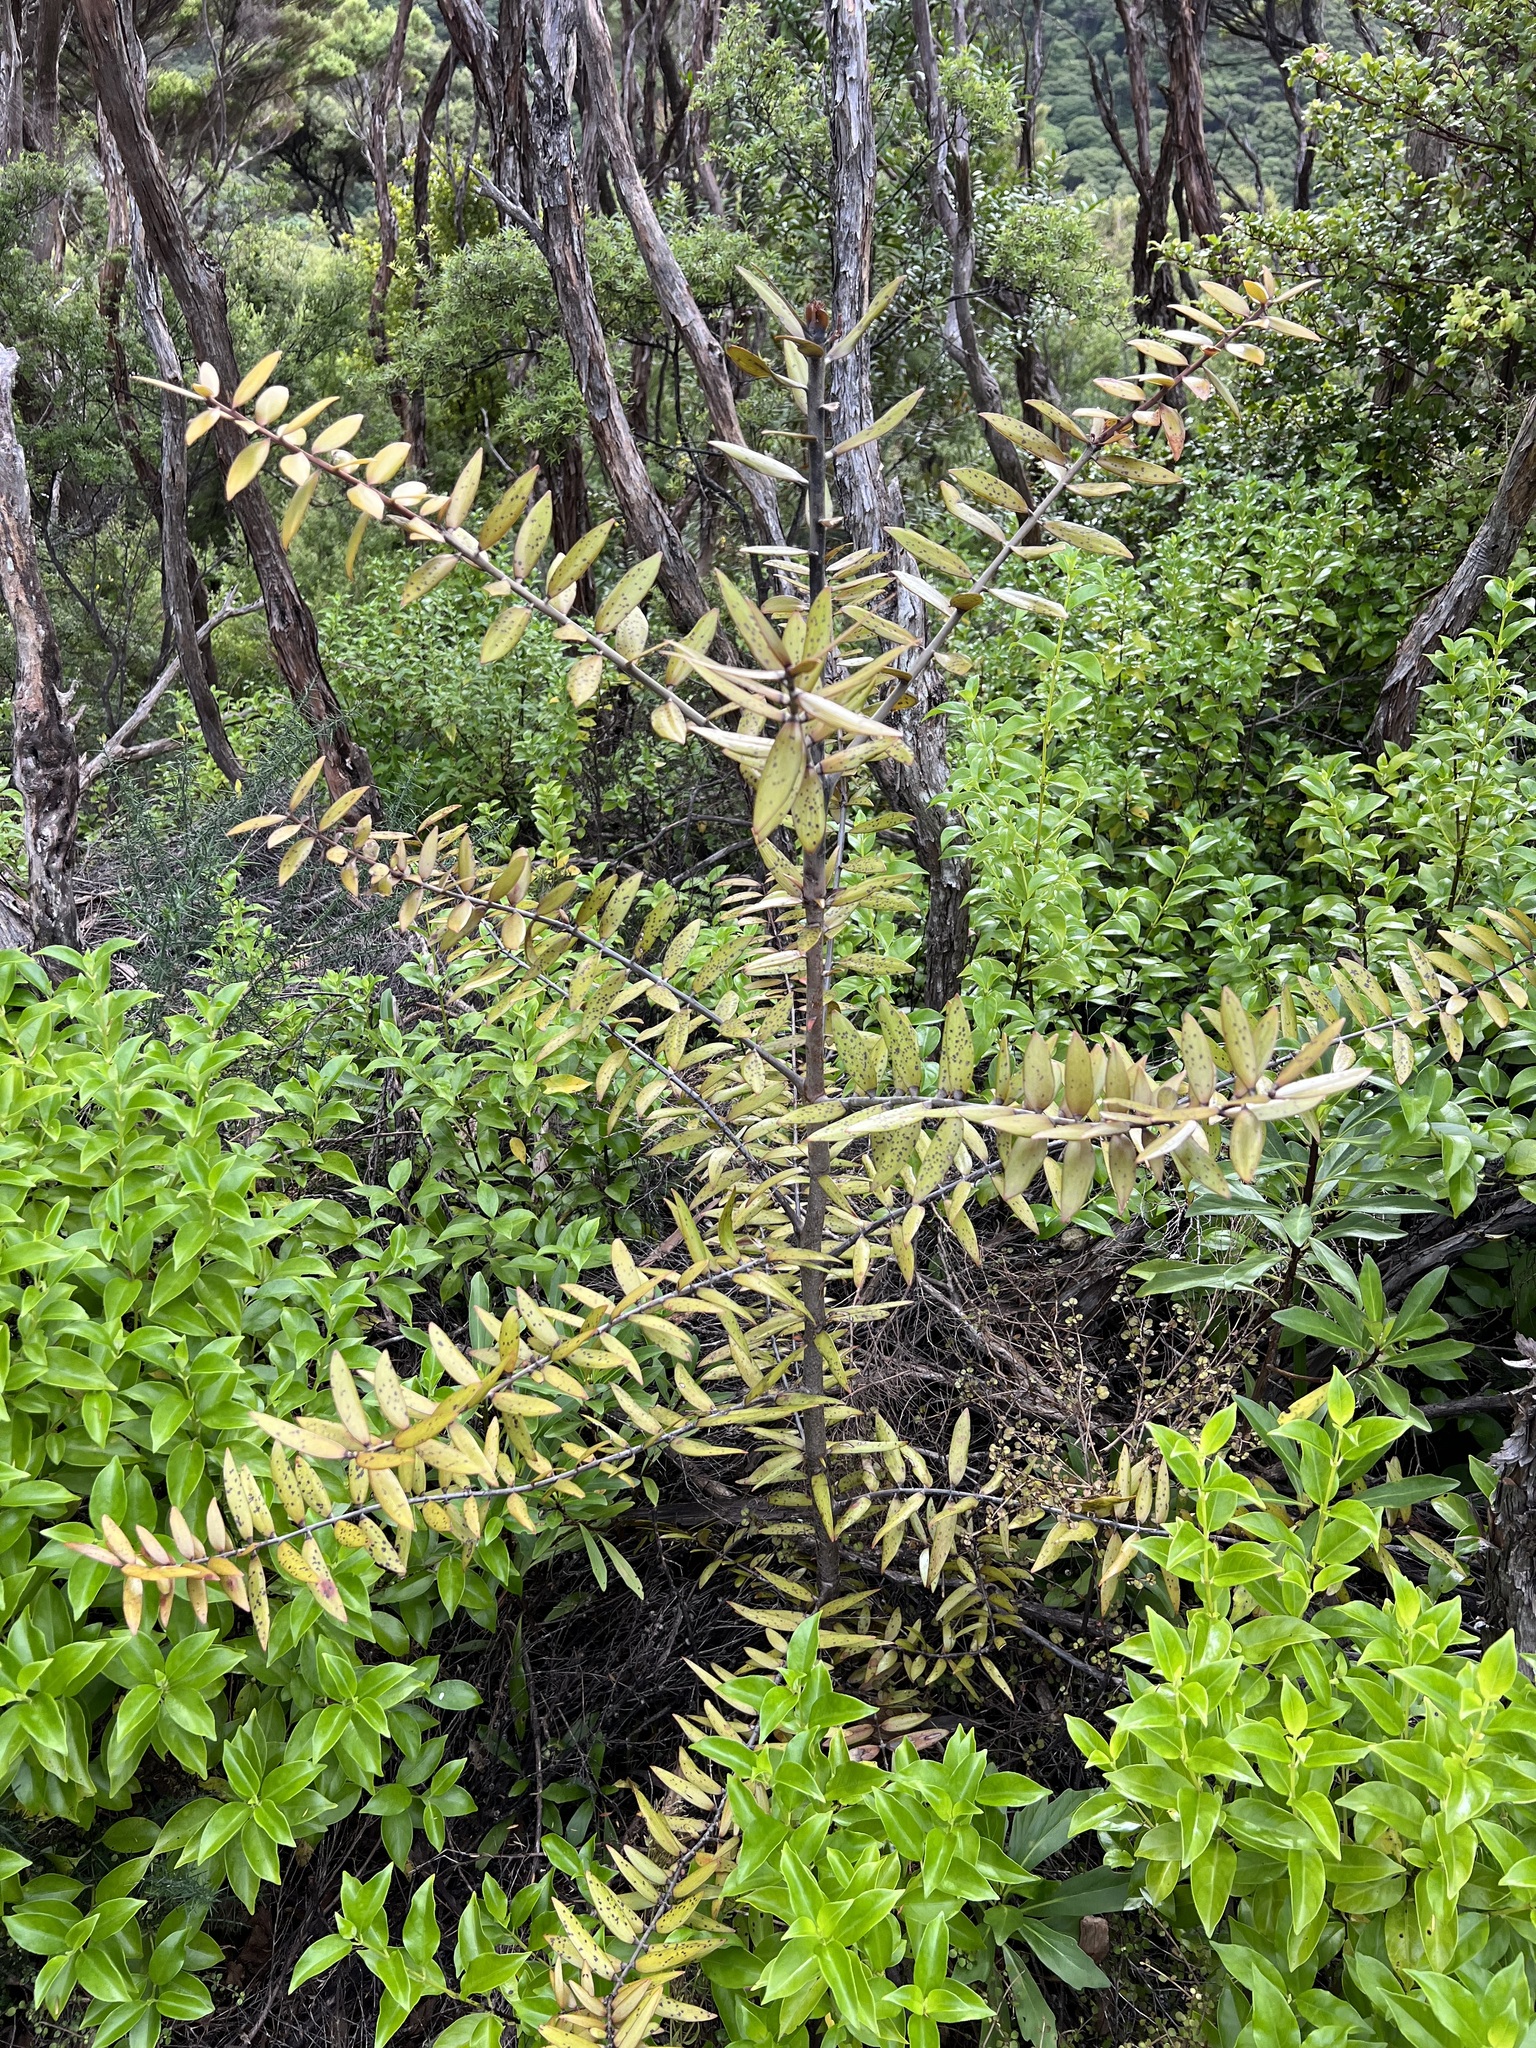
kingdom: Plantae
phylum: Tracheophyta
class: Pinopsida
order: Pinales
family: Araucariaceae
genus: Agathis
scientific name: Agathis australis
